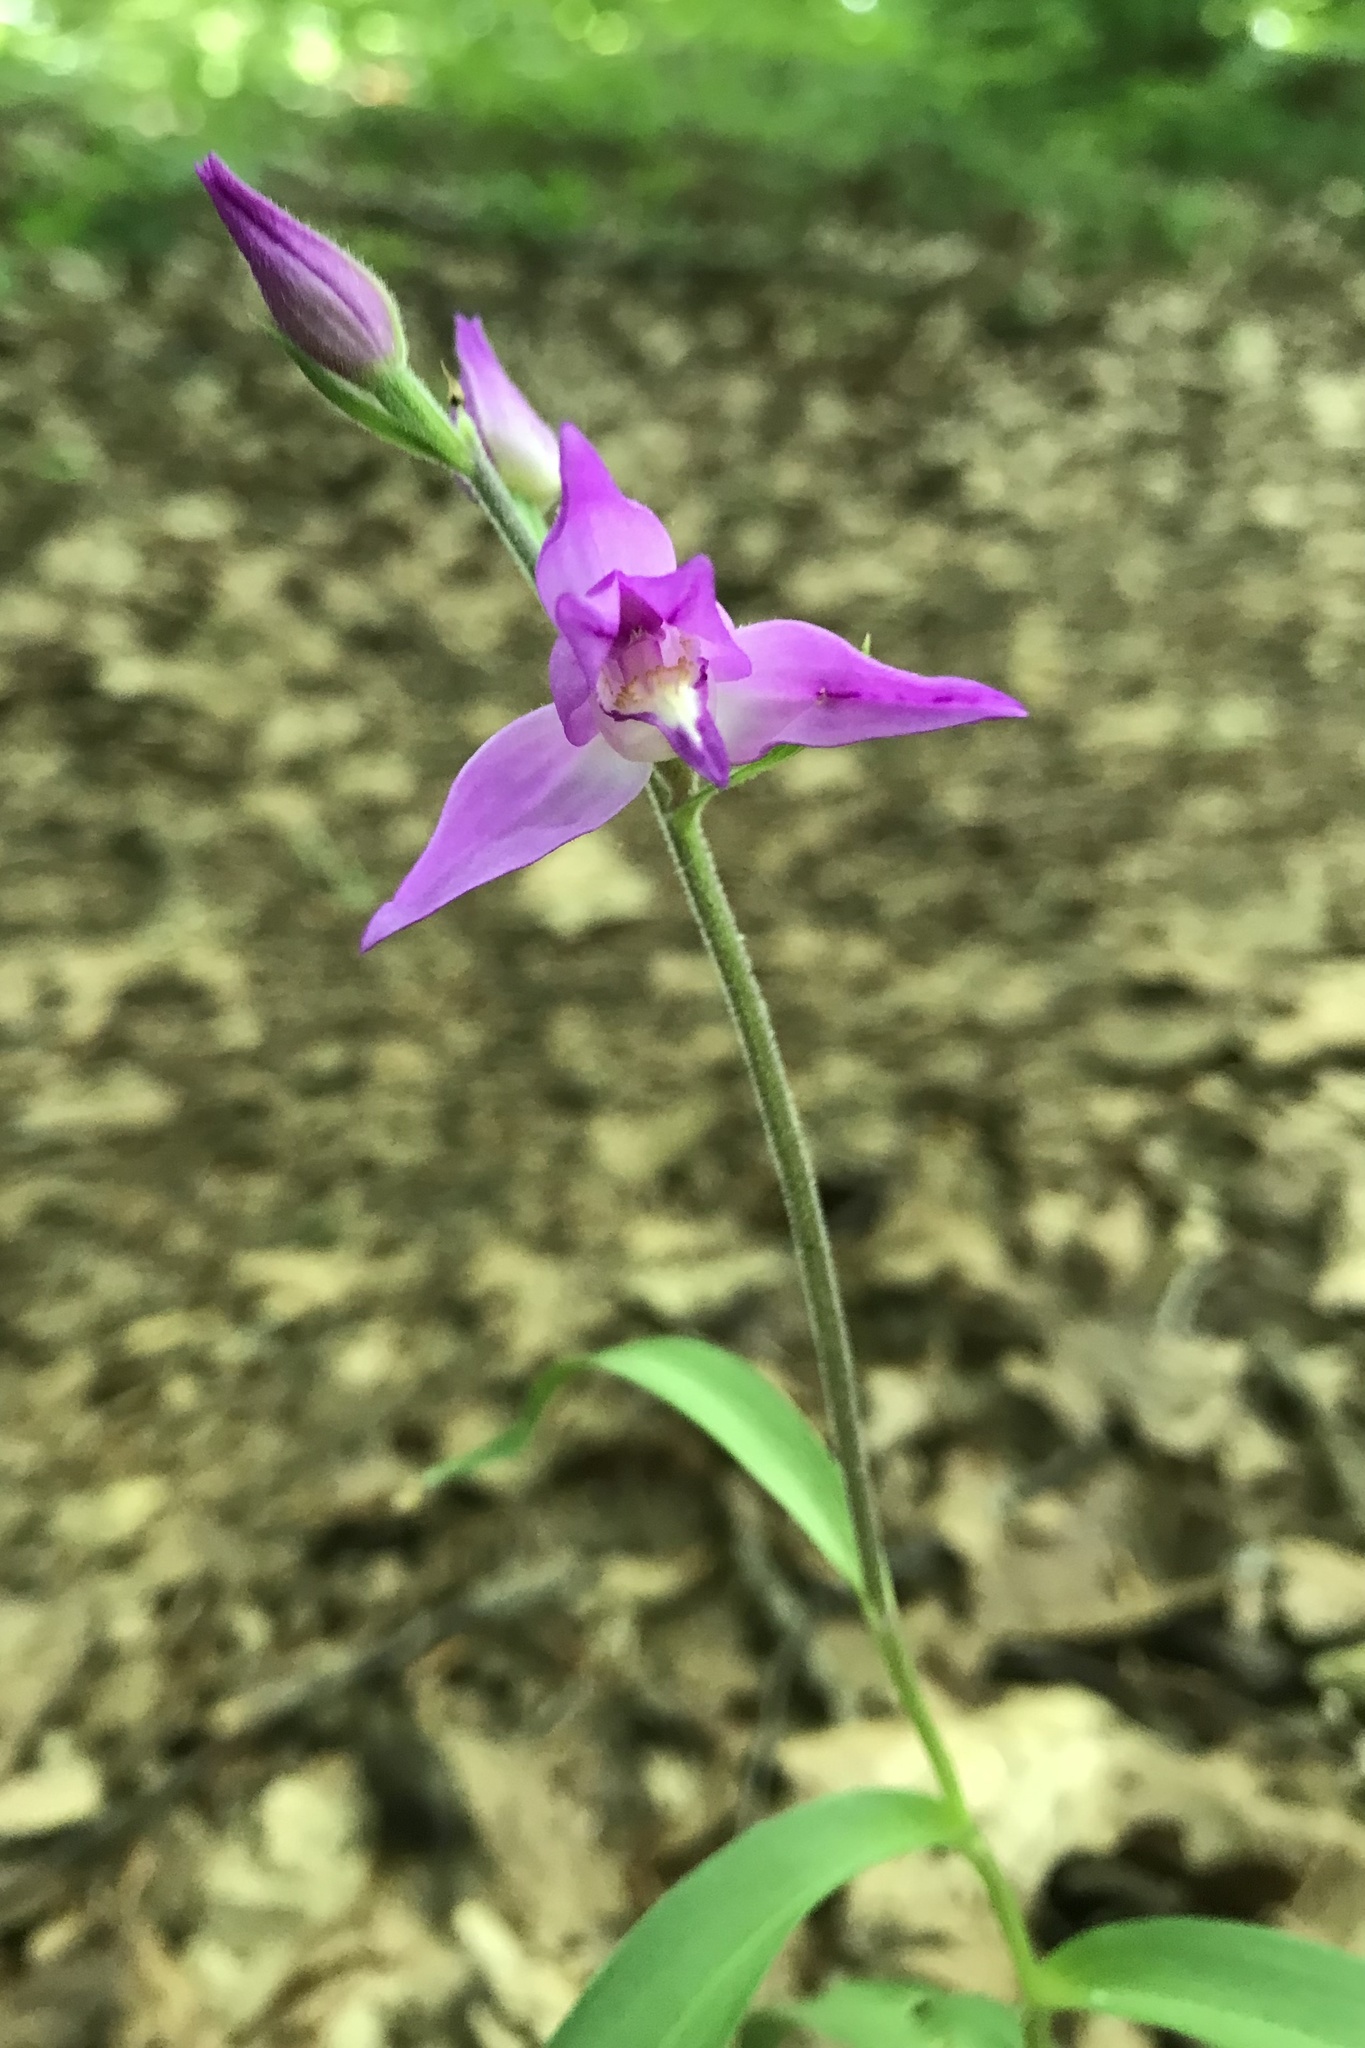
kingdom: Plantae
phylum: Tracheophyta
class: Liliopsida
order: Asparagales
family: Orchidaceae
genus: Cephalanthera
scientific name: Cephalanthera rubra
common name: Red helleborine
